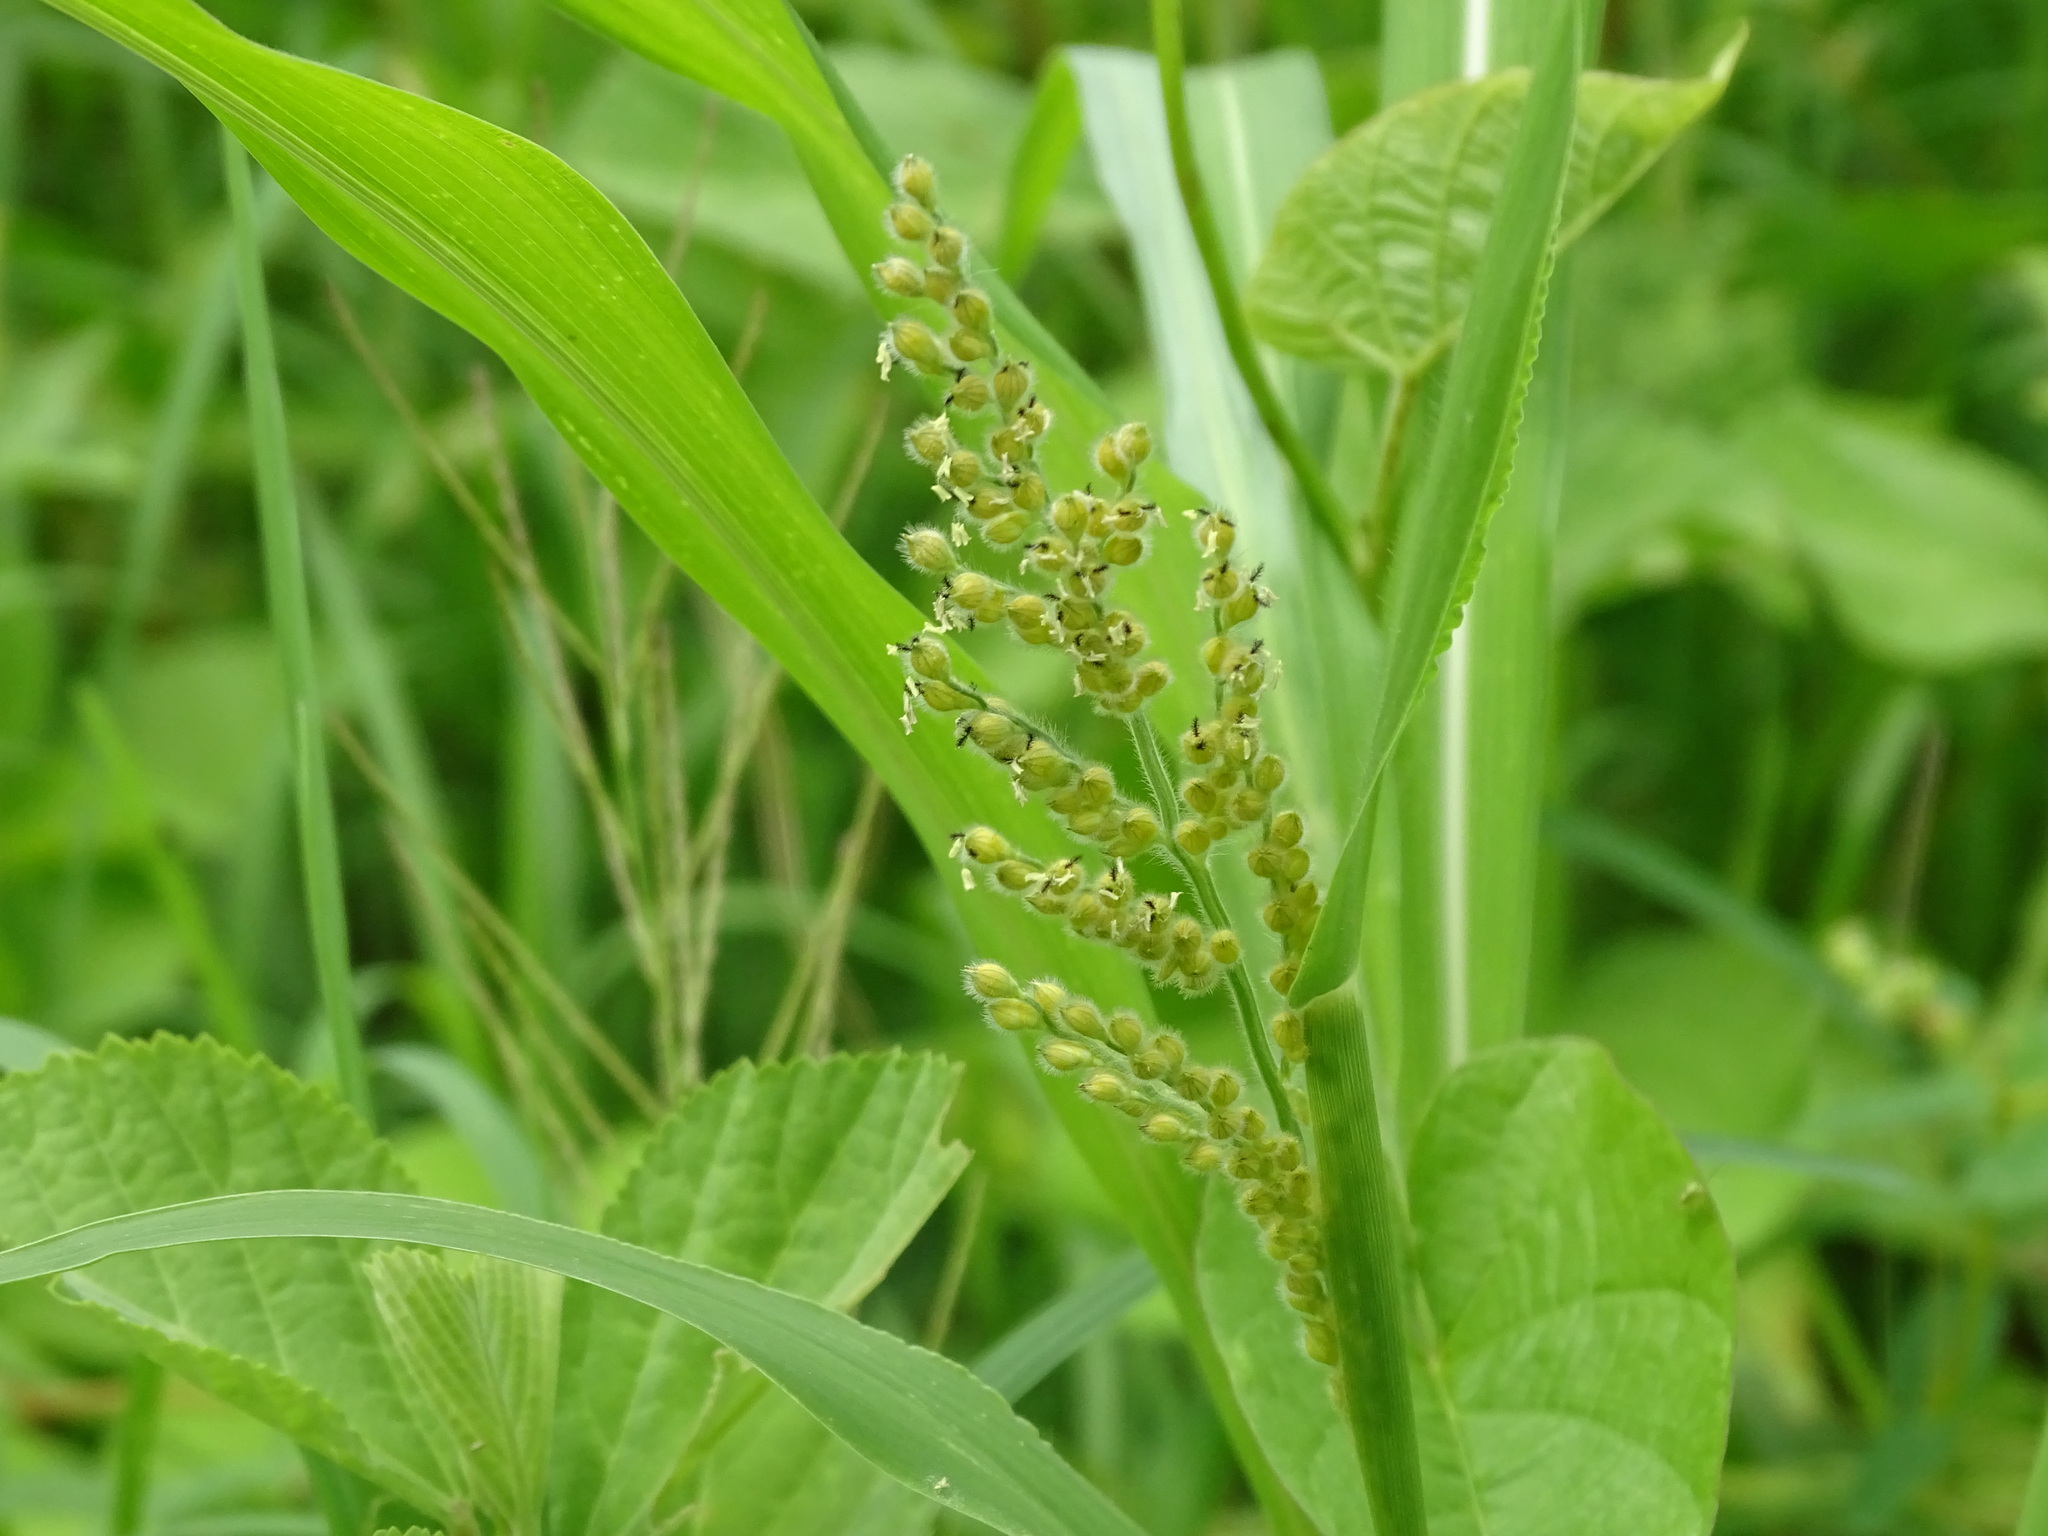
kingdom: Plantae
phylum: Tracheophyta
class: Liliopsida
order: Poales
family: Poaceae
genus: Urochloa
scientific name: Urochloa fusca
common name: Browntop signal grass
